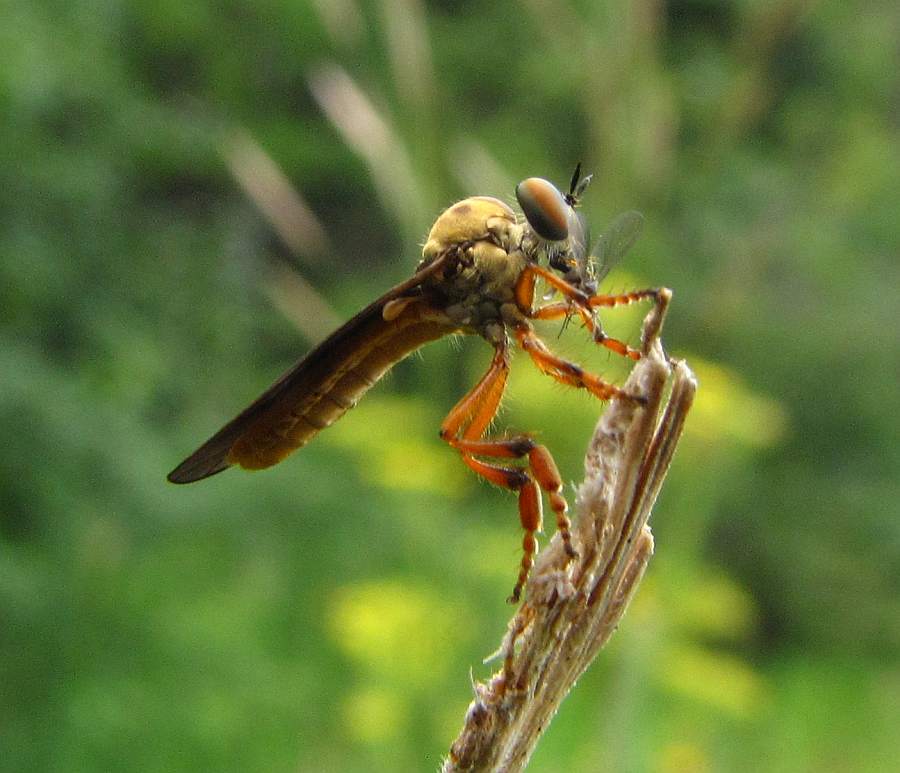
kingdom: Animalia
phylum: Arthropoda
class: Insecta
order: Diptera
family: Asilidae
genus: Holcocephala
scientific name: Holcocephala abdominalis
